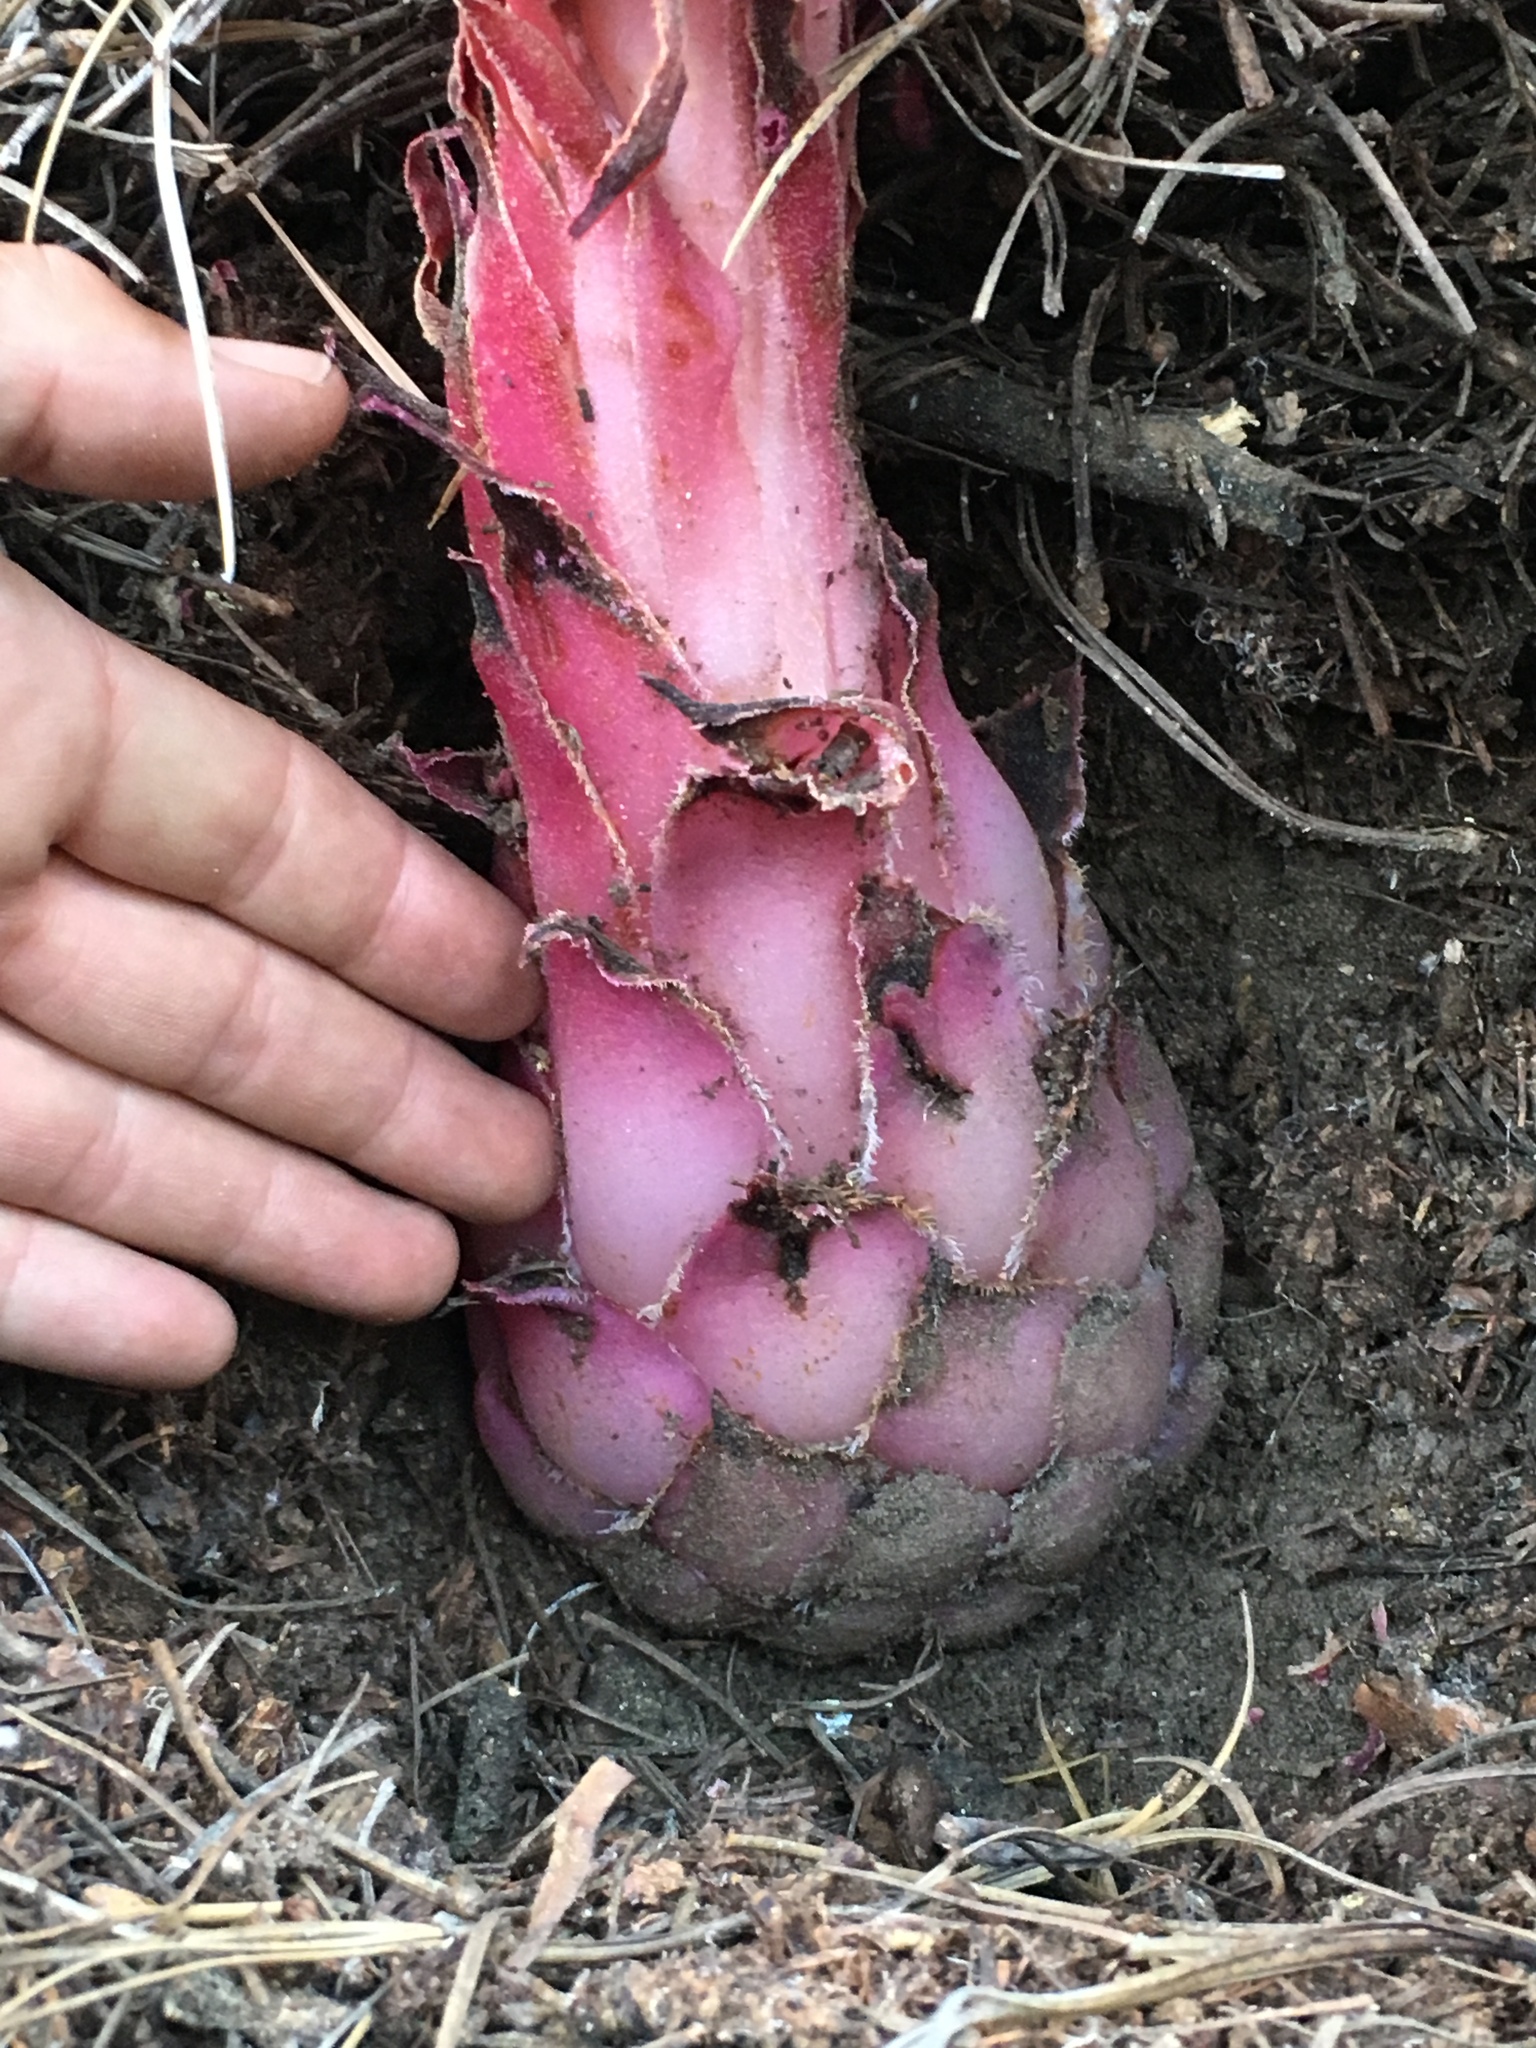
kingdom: Plantae
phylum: Tracheophyta
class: Magnoliopsida
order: Ericales
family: Ericaceae
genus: Sarcodes
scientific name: Sarcodes sanguinea
